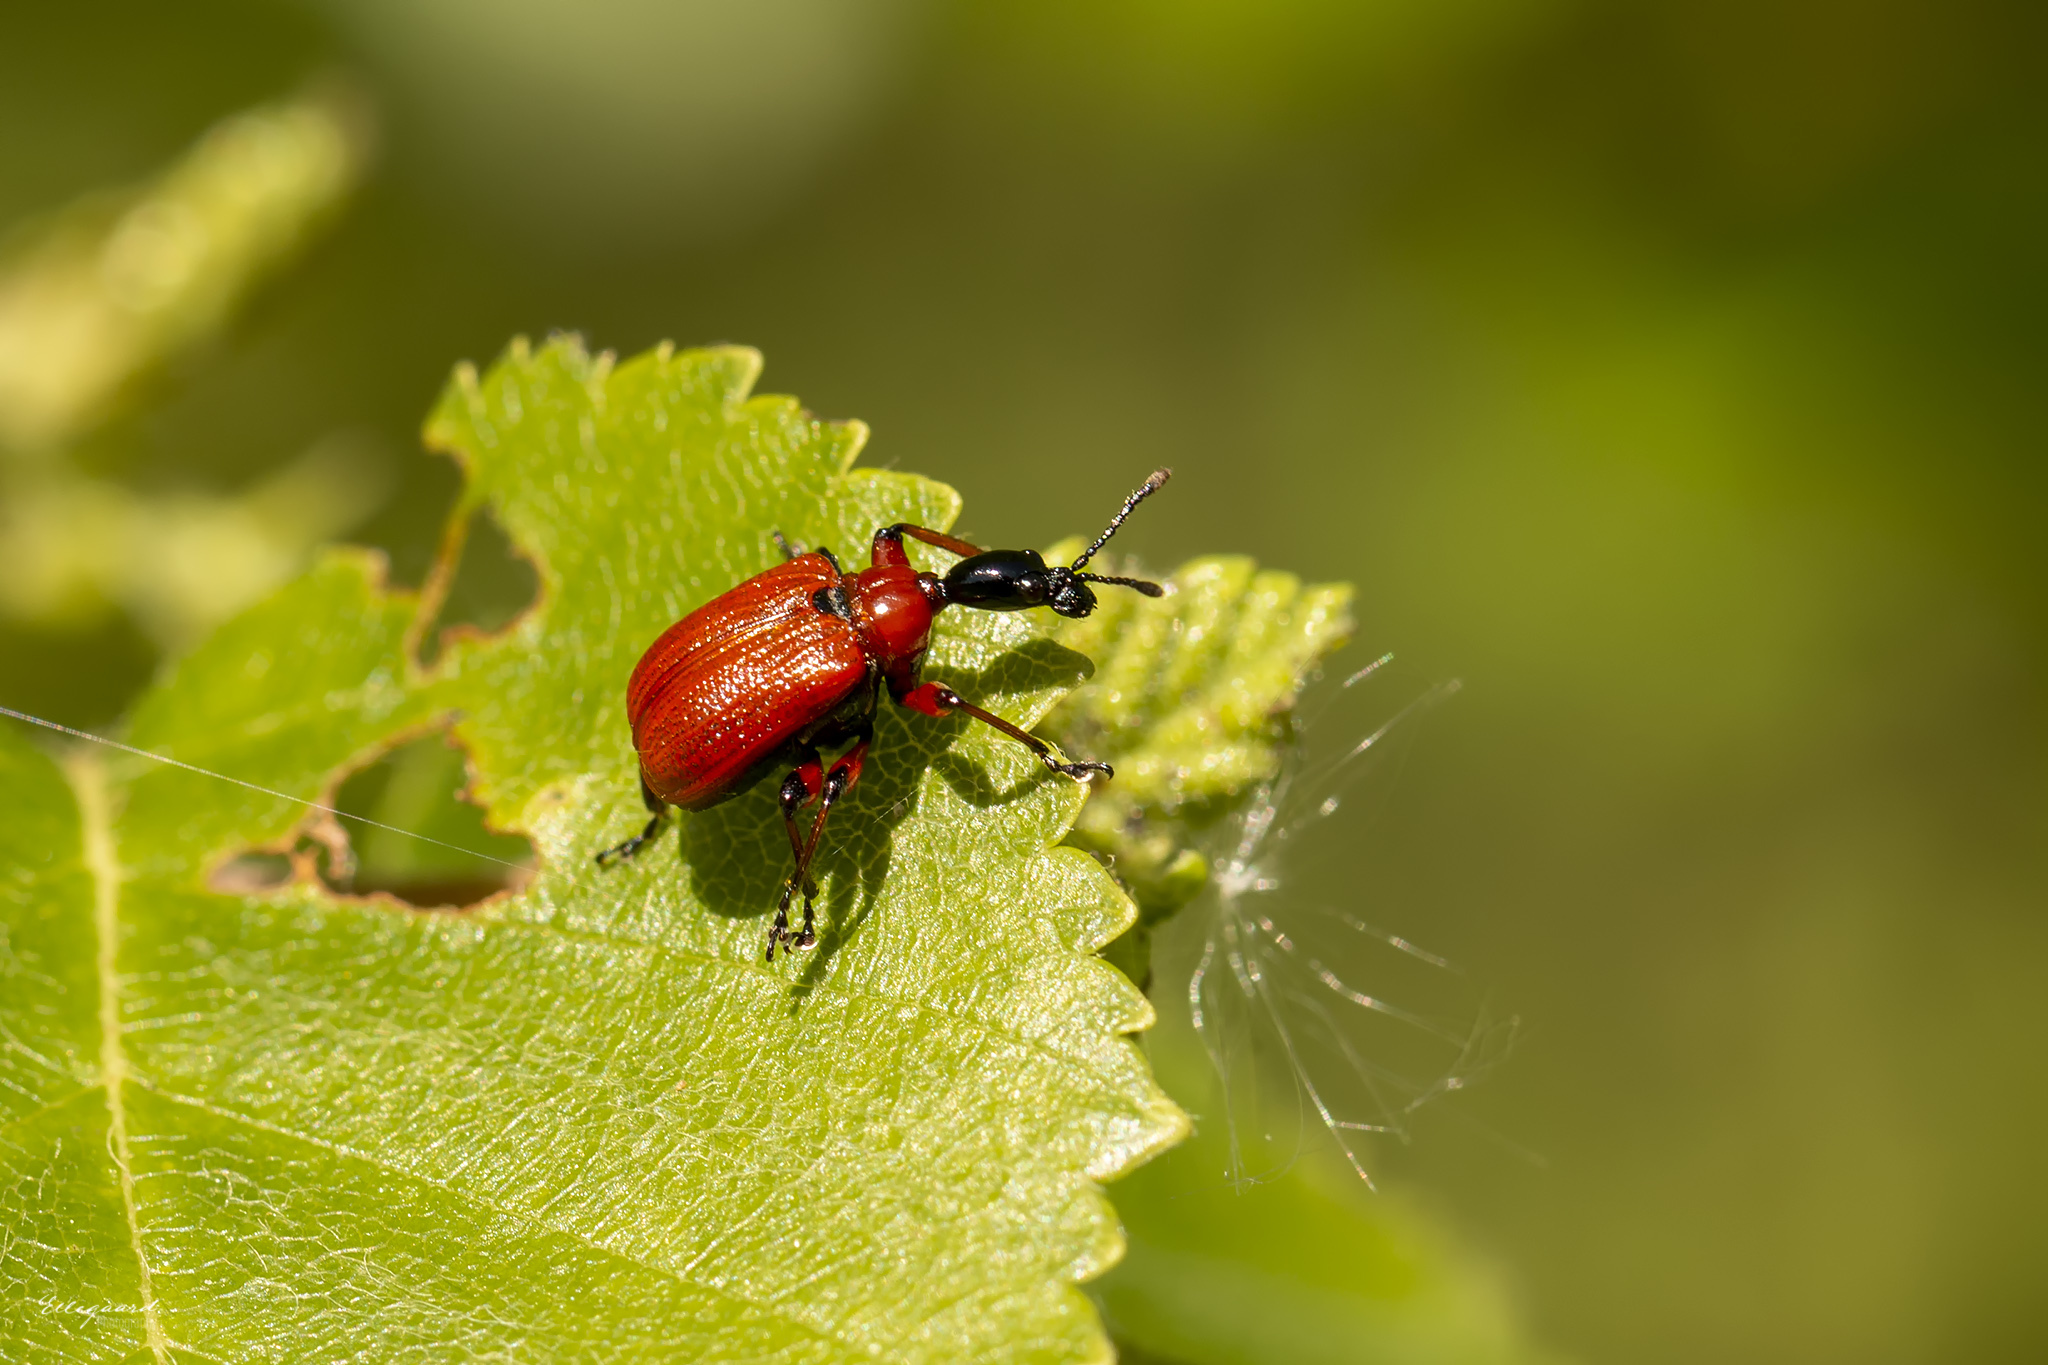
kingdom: Animalia
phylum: Arthropoda
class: Insecta
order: Coleoptera
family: Attelabidae
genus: Apoderus
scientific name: Apoderus coryli
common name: Hazel leaf roller
